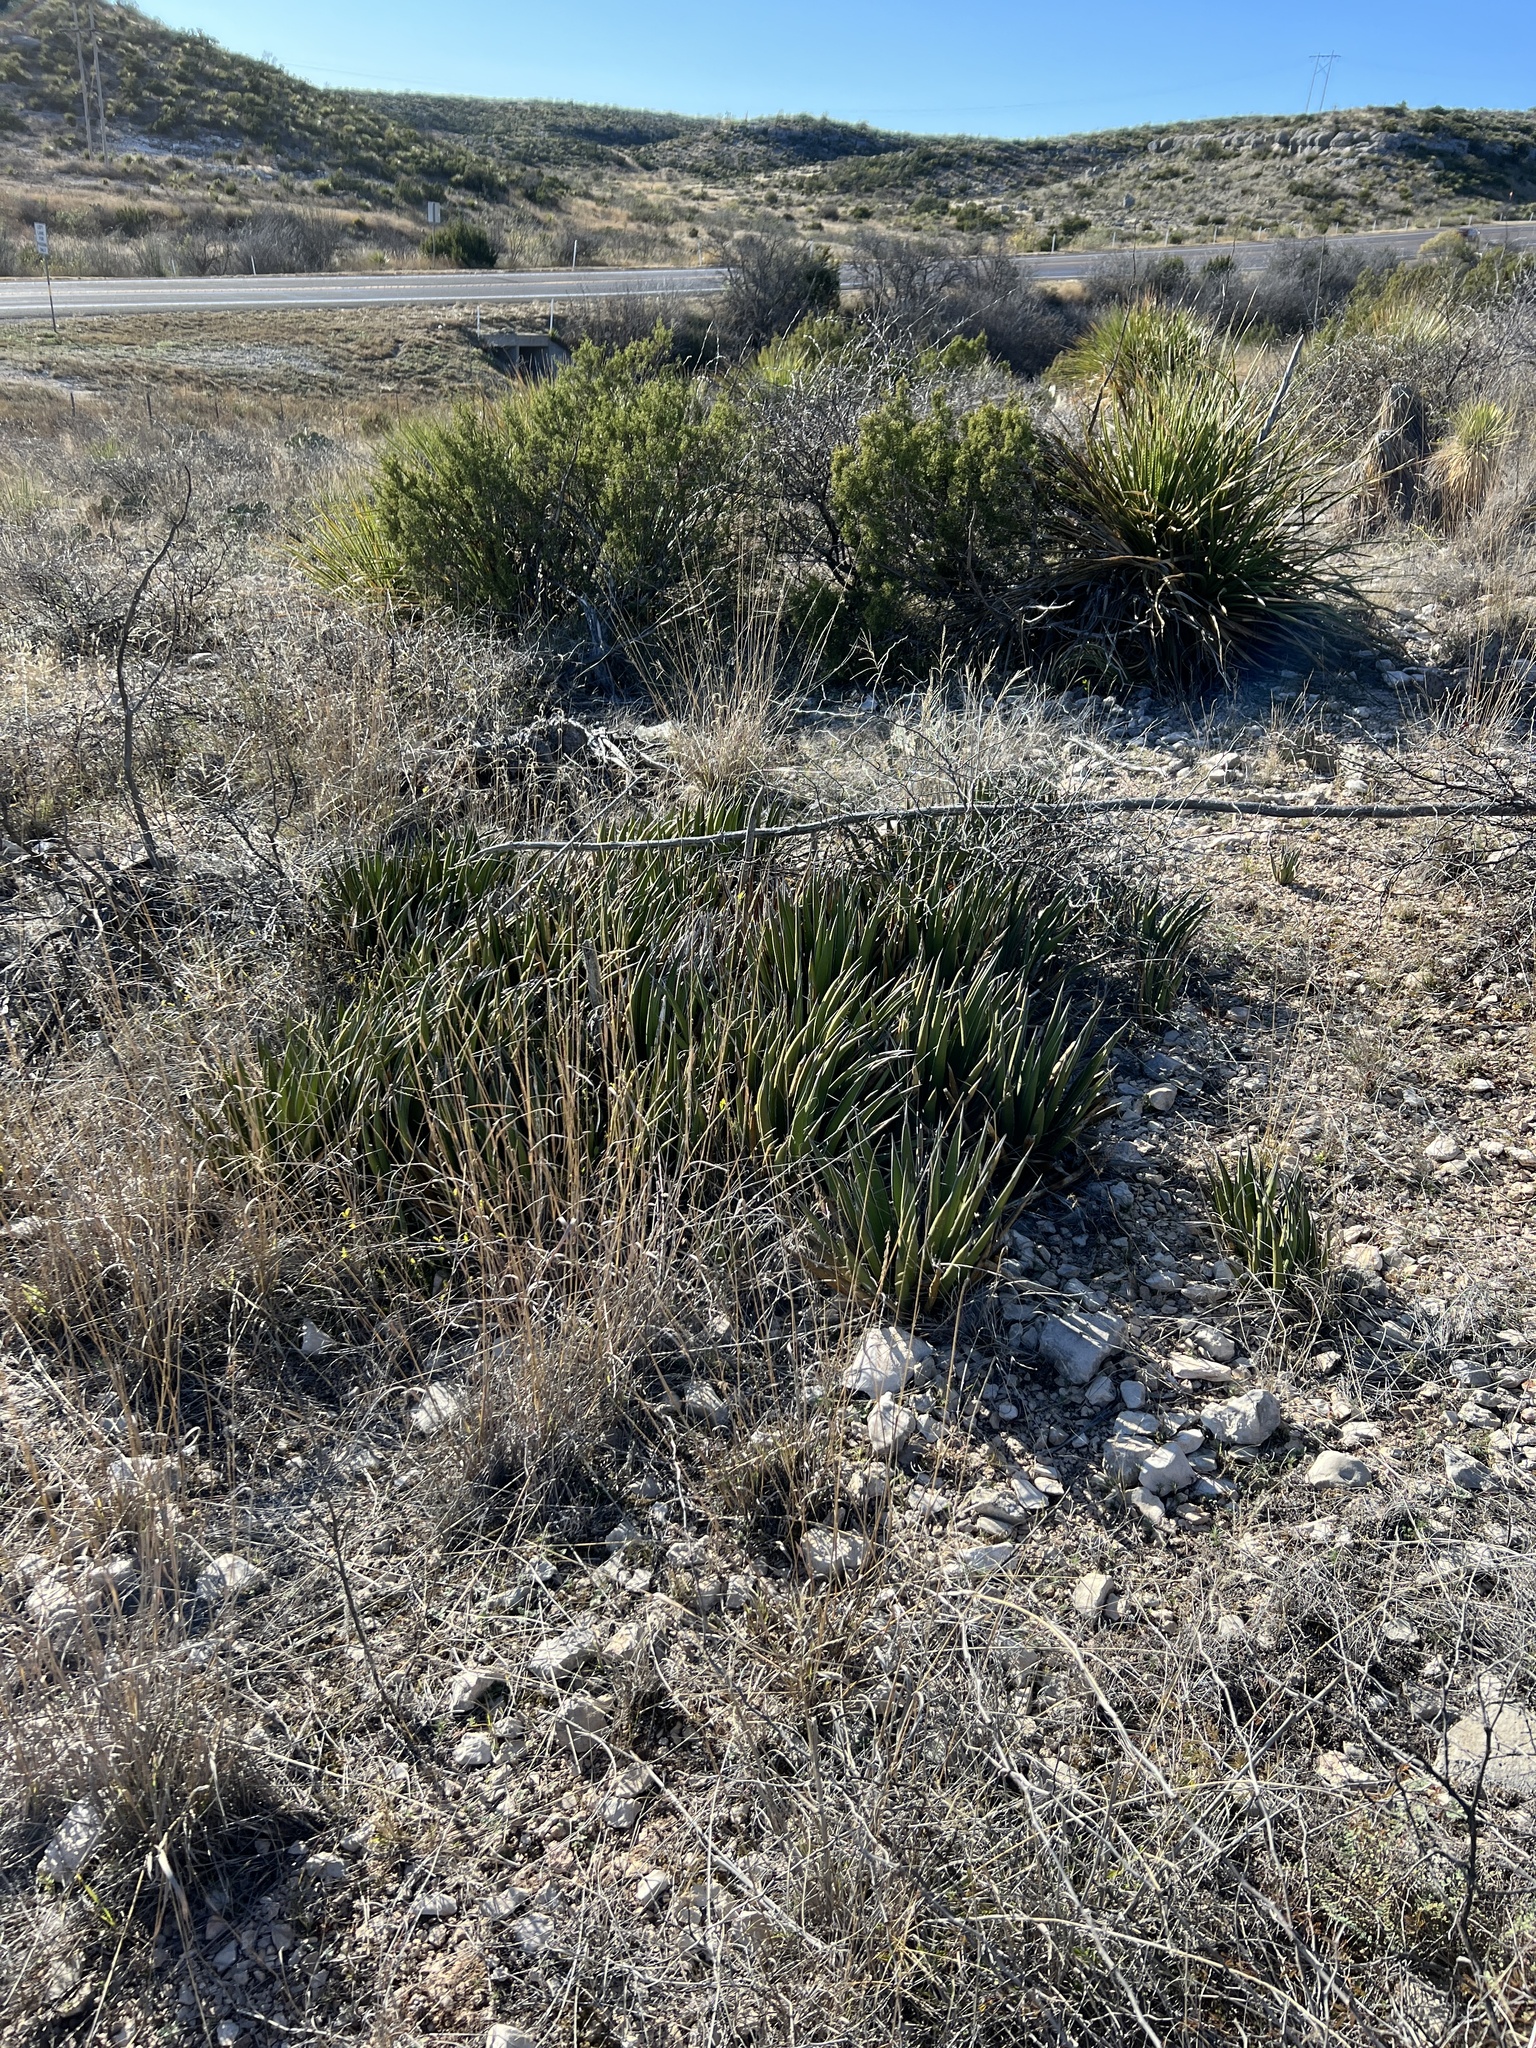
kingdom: Plantae
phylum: Tracheophyta
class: Liliopsida
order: Asparagales
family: Asparagaceae
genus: Agave
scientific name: Agave lechuguilla
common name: Lecheguilla agave
